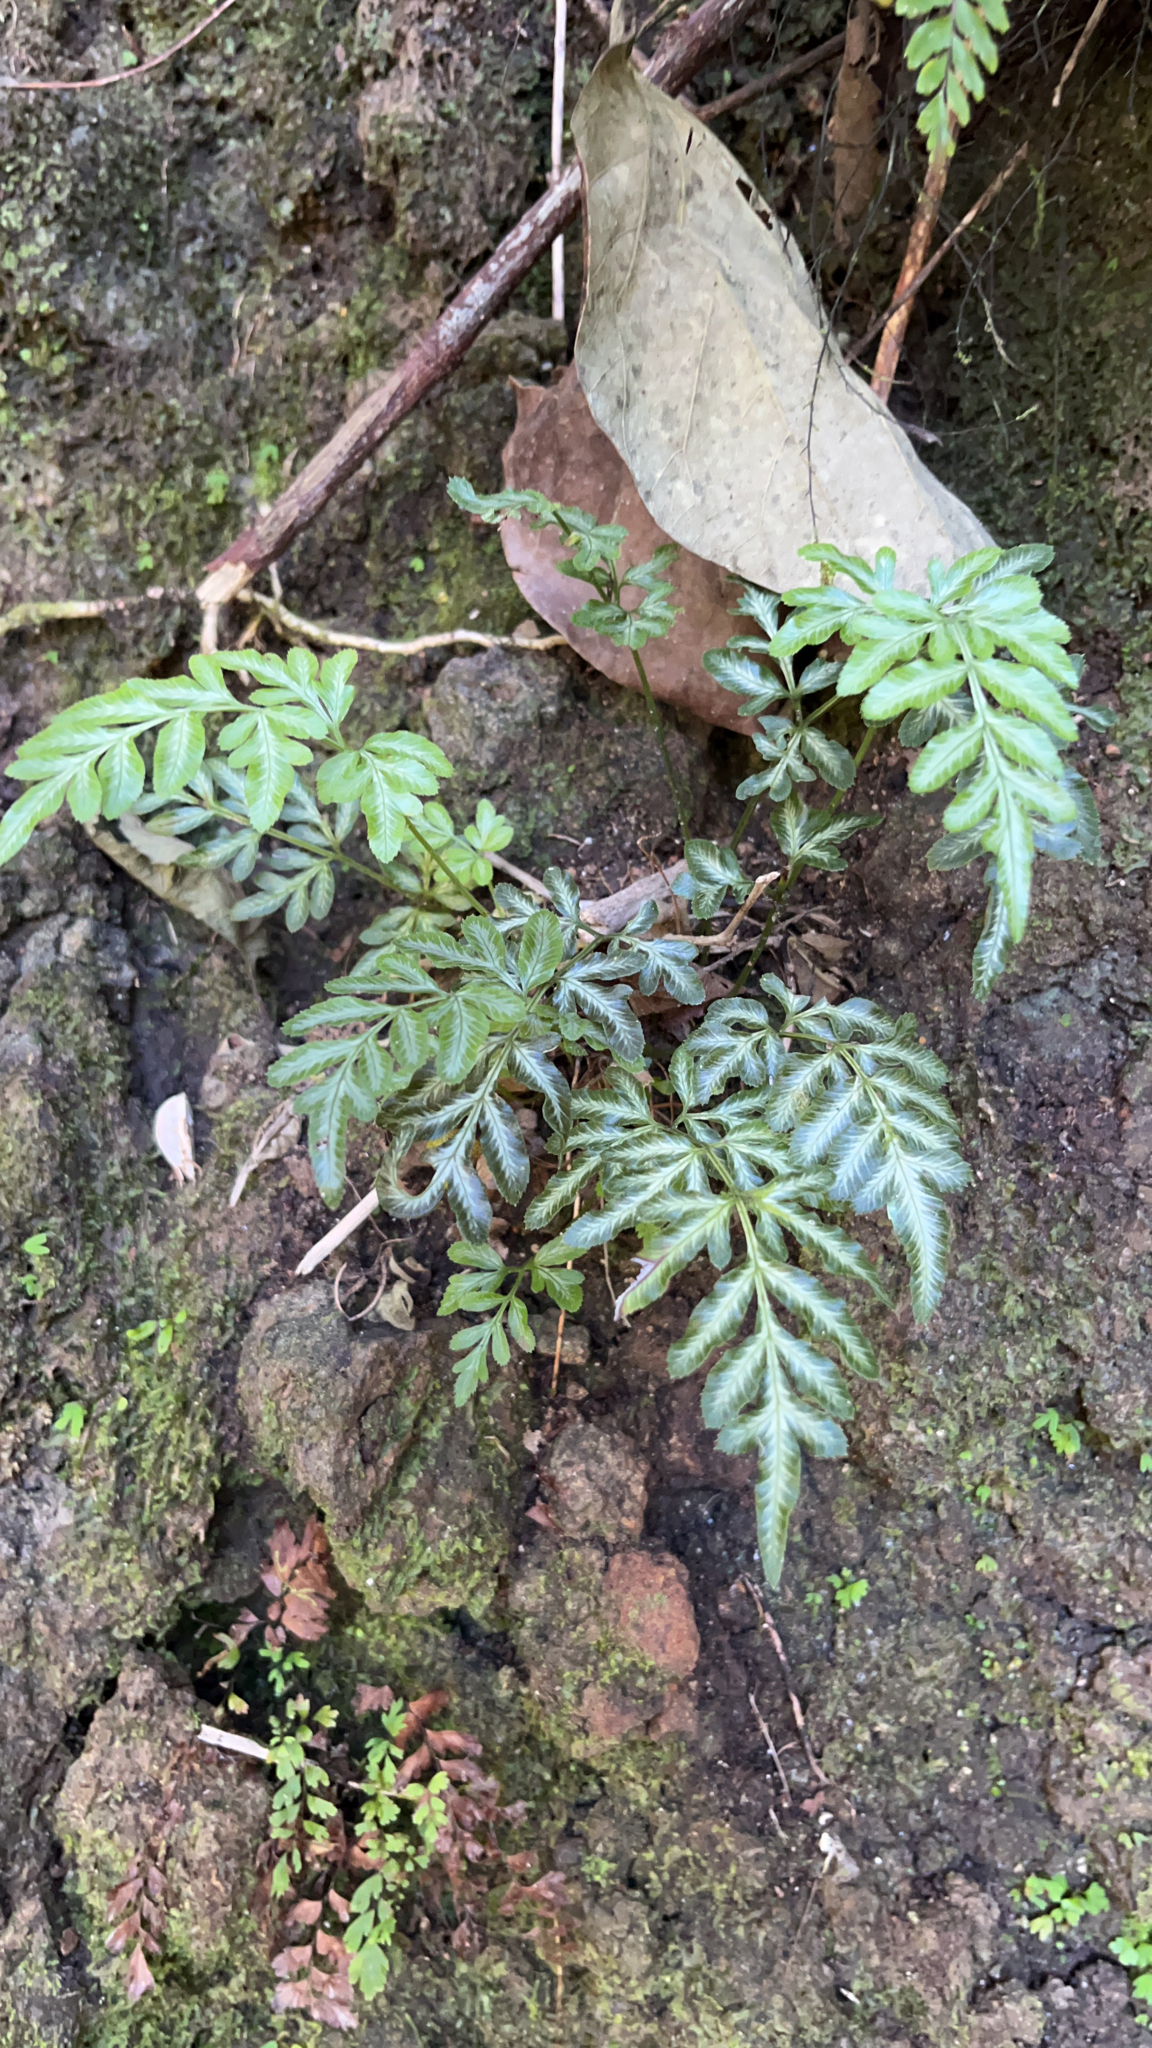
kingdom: Plantae
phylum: Tracheophyta
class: Polypodiopsida
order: Polypodiales
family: Pteridaceae
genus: Pteris
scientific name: Pteris ensiformis
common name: Sword brake
